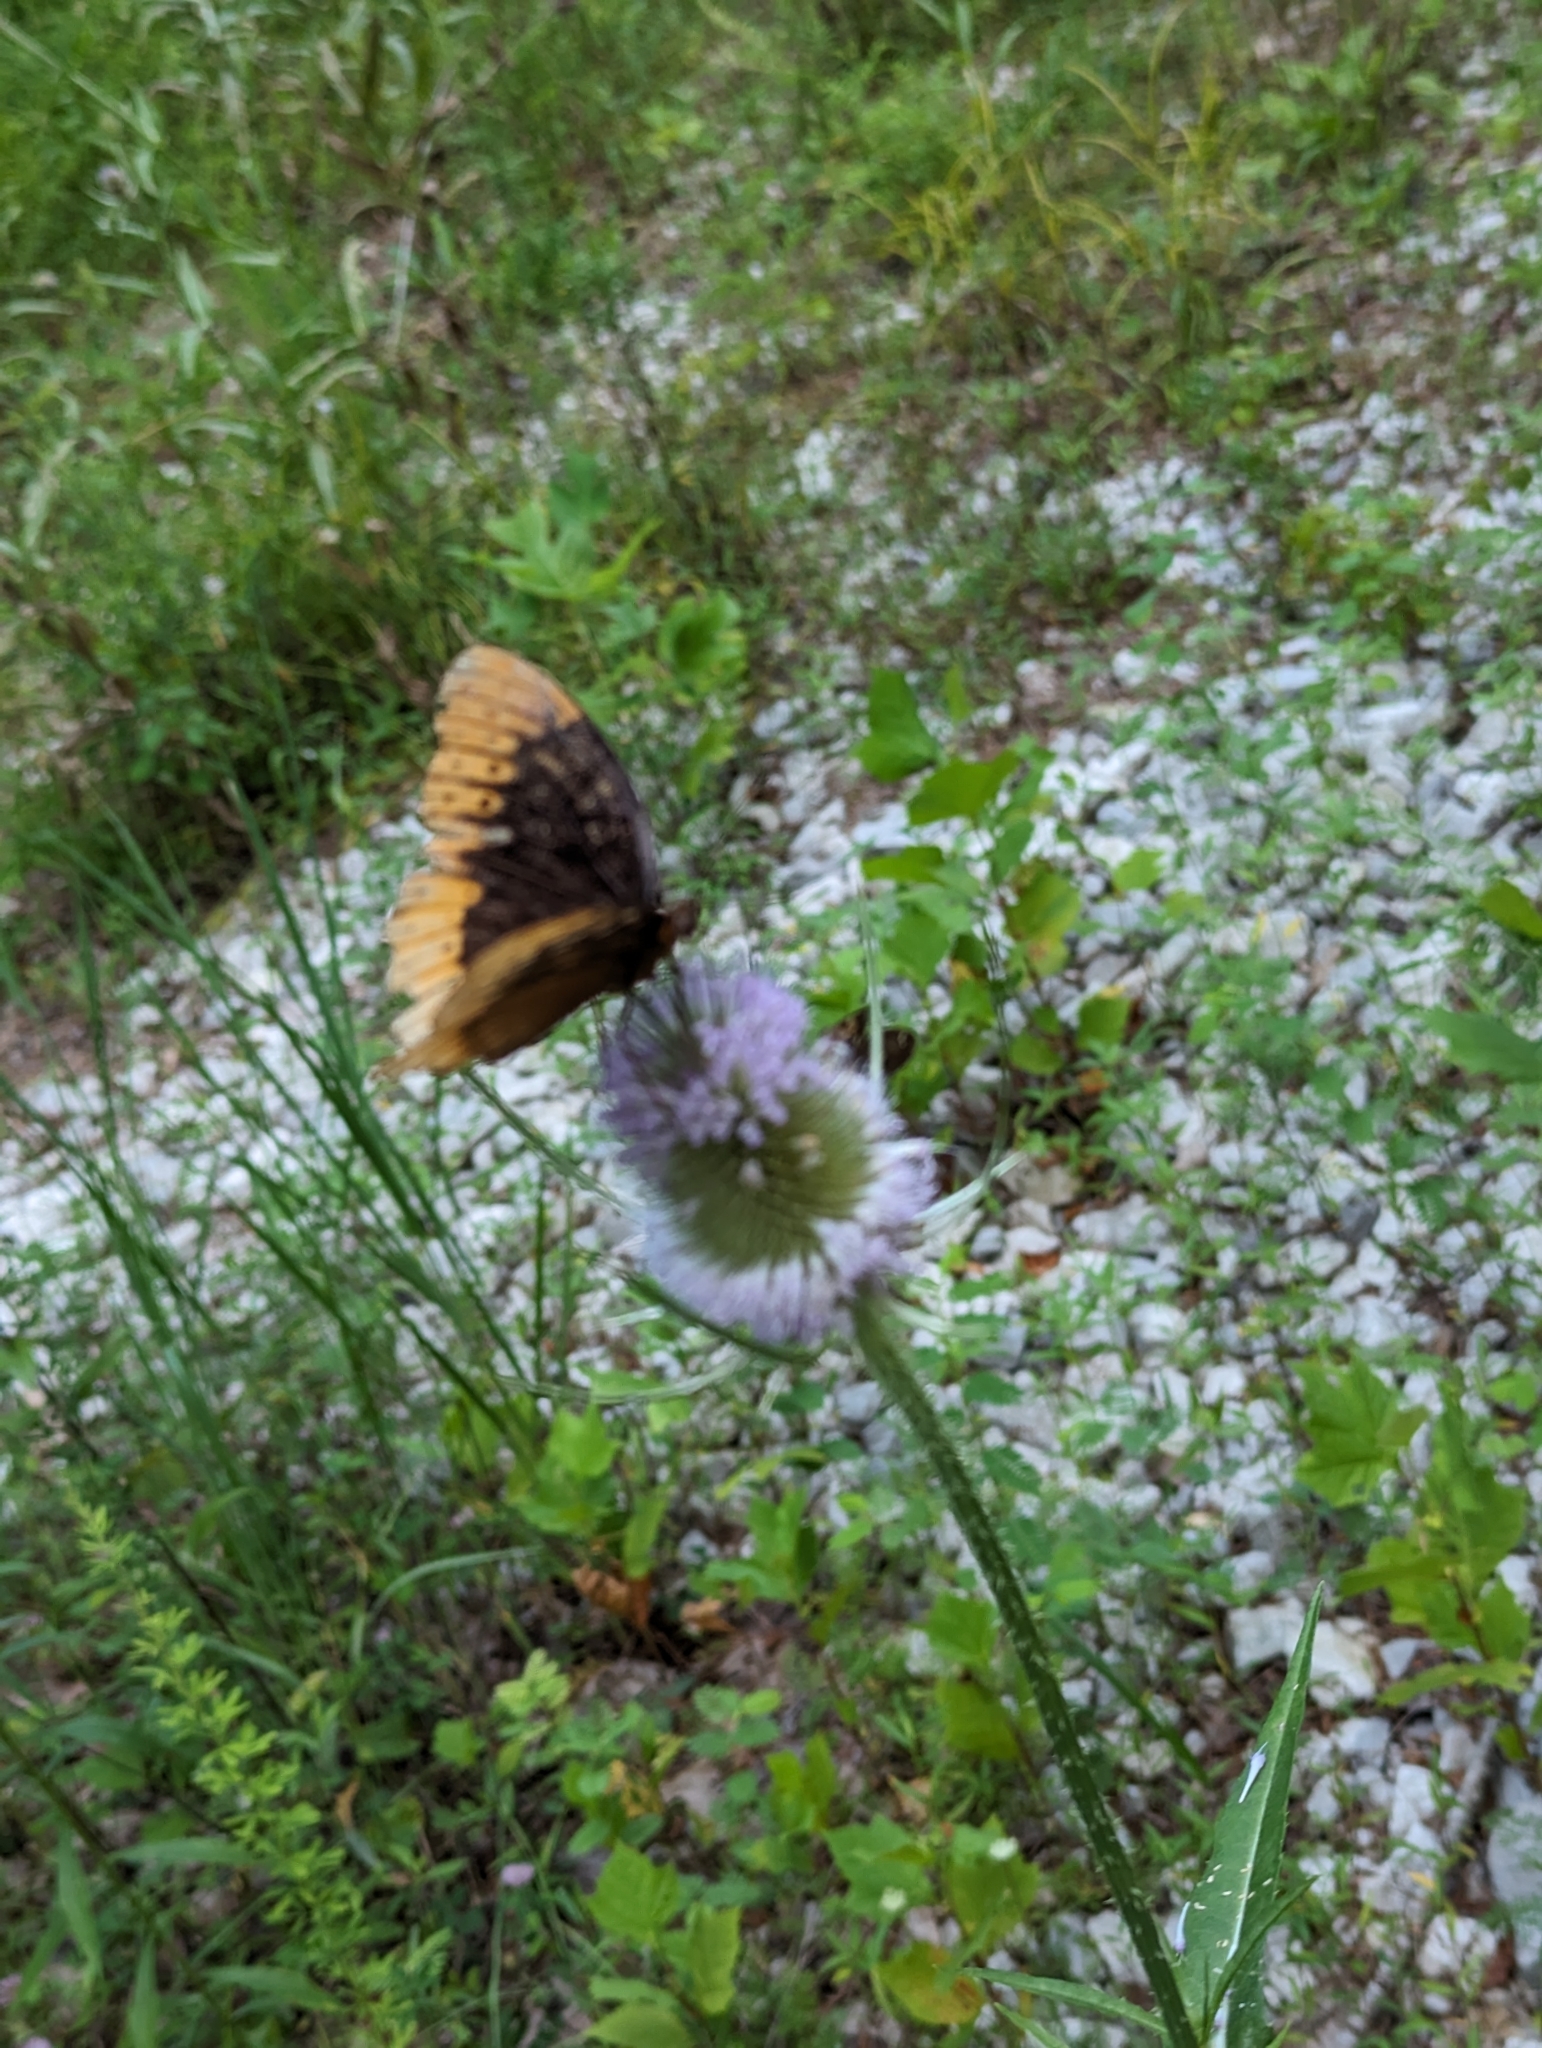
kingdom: Animalia
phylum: Arthropoda
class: Insecta
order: Lepidoptera
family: Nymphalidae
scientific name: Nymphalidae
